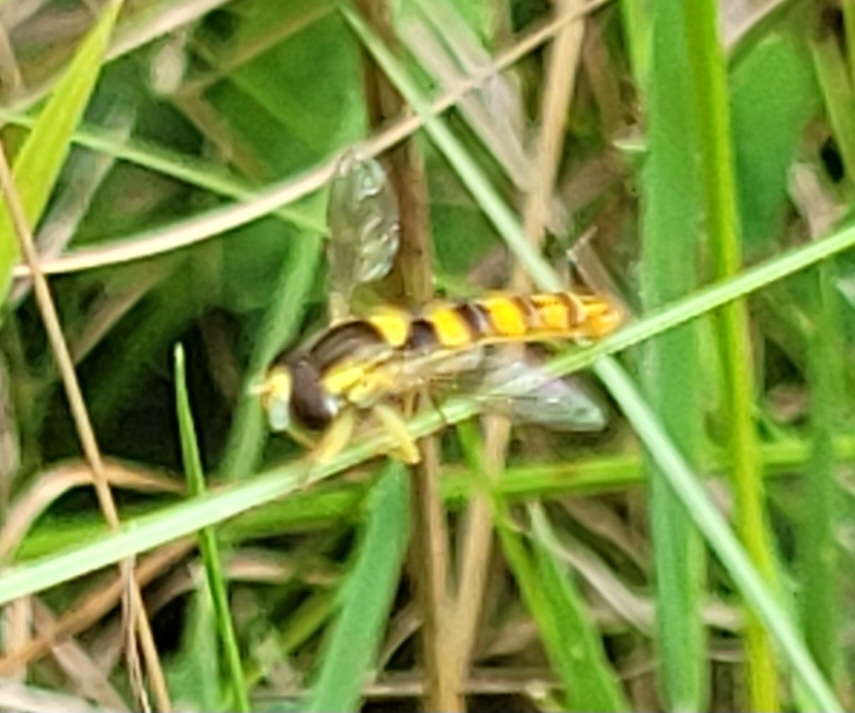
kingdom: Animalia
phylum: Arthropoda
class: Insecta
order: Diptera
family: Syrphidae
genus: Sphaerophoria
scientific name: Sphaerophoria scripta
